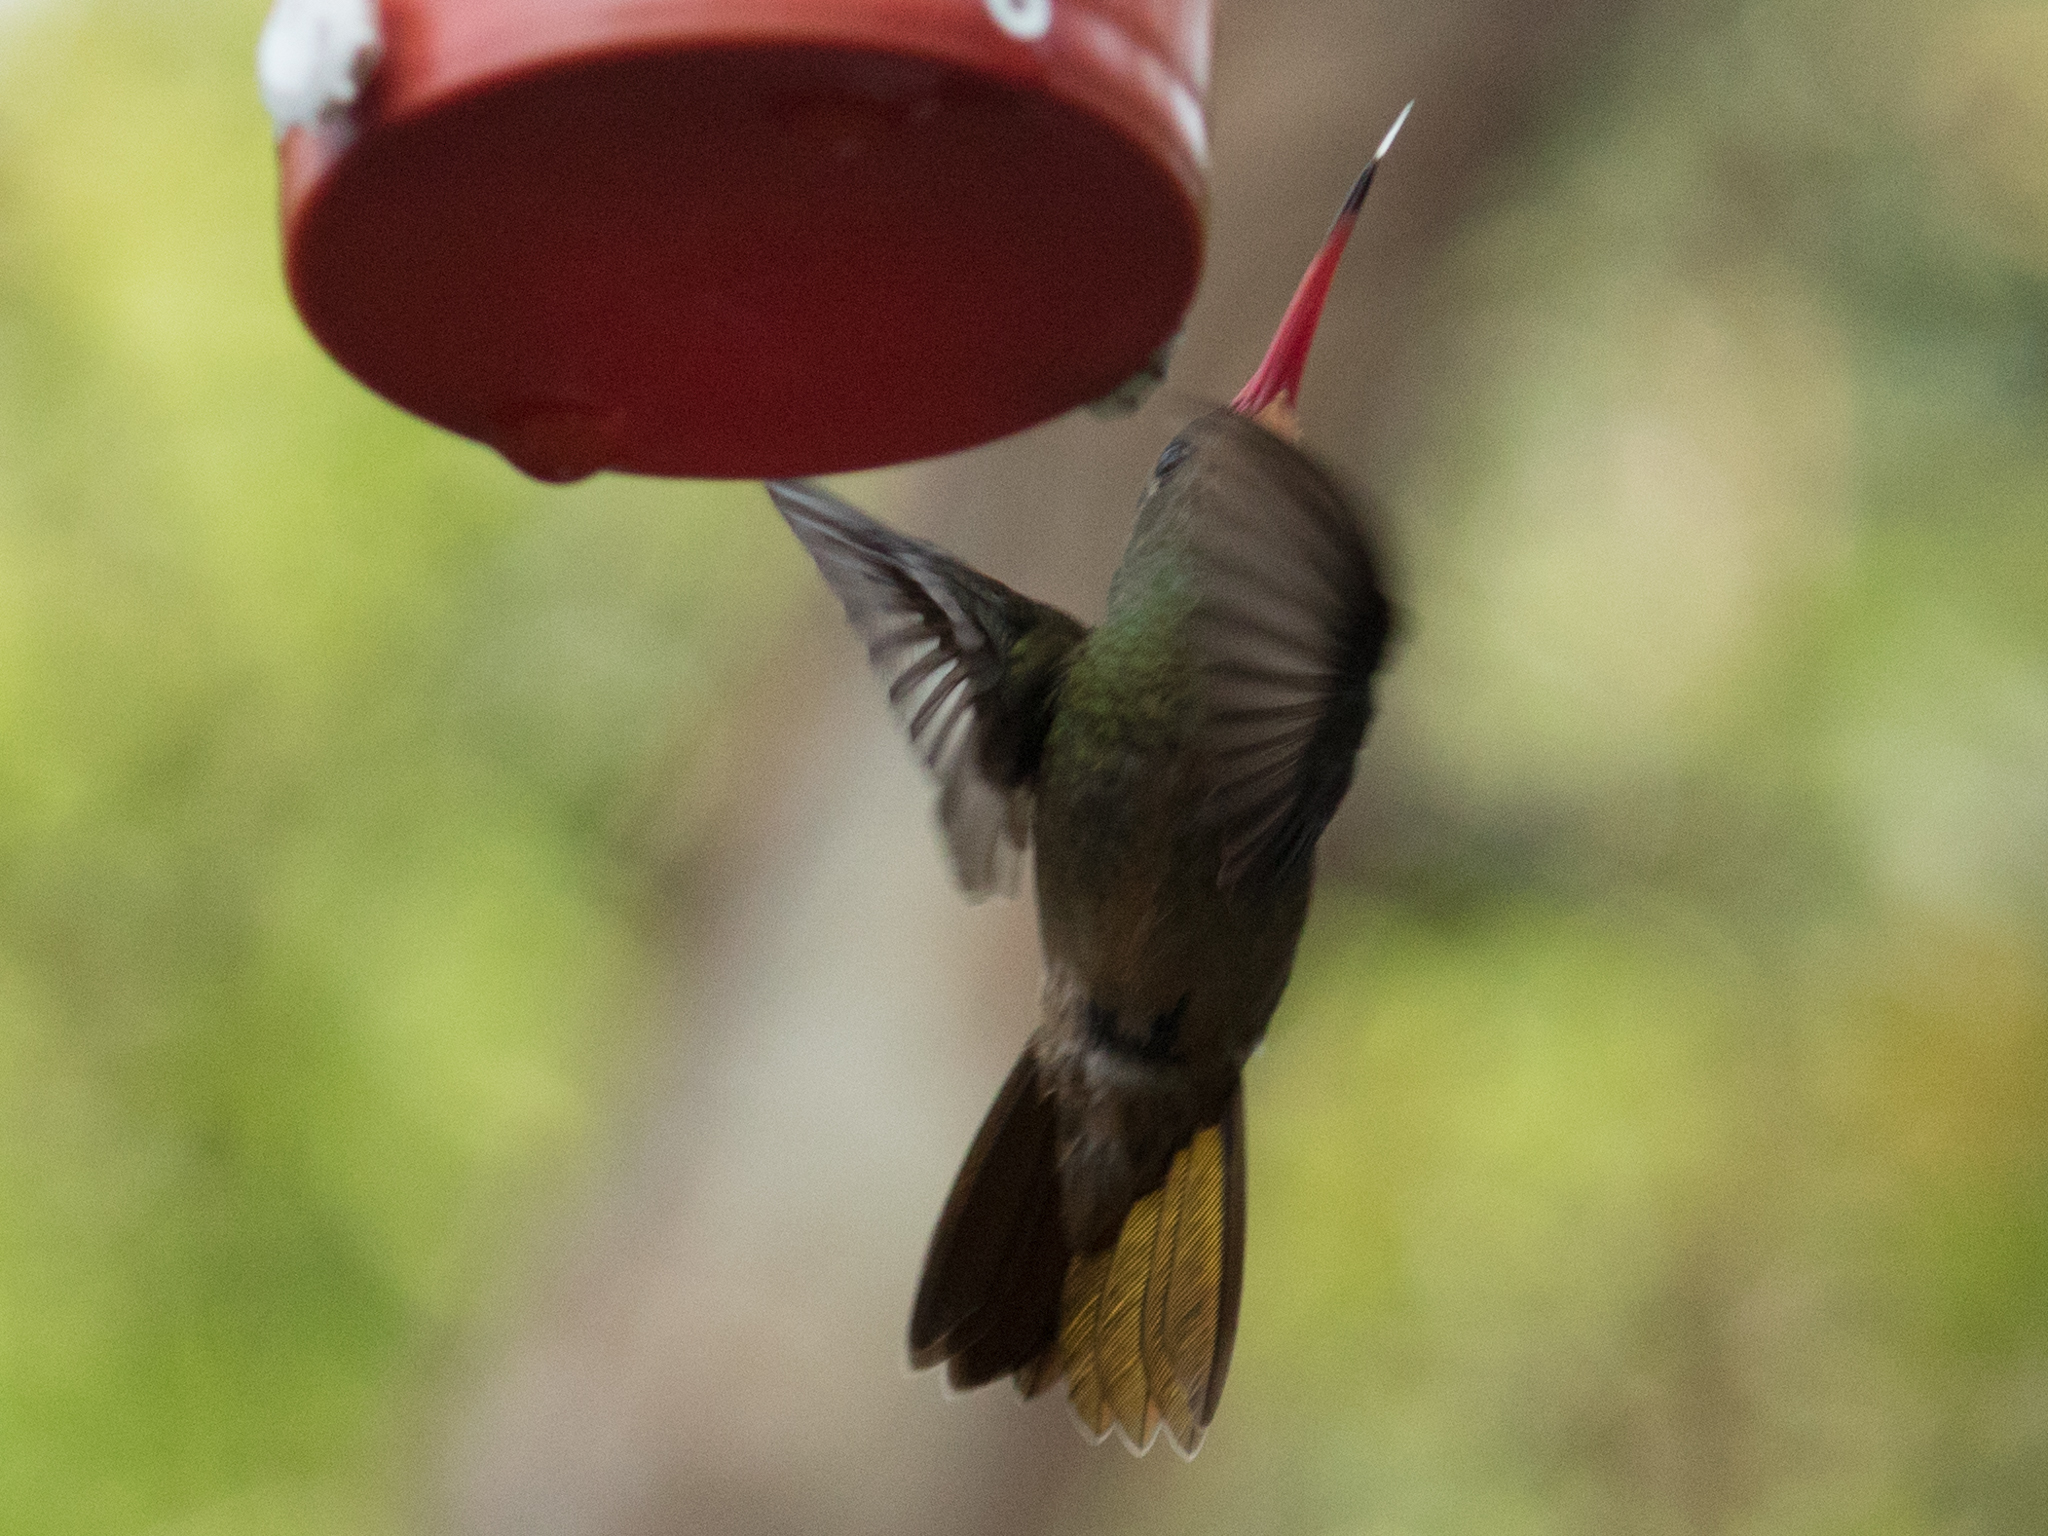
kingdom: Animalia
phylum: Chordata
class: Aves
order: Apodiformes
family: Trochilidae
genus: Hylocharis
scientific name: Hylocharis chrysura
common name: Gilded sapphire
